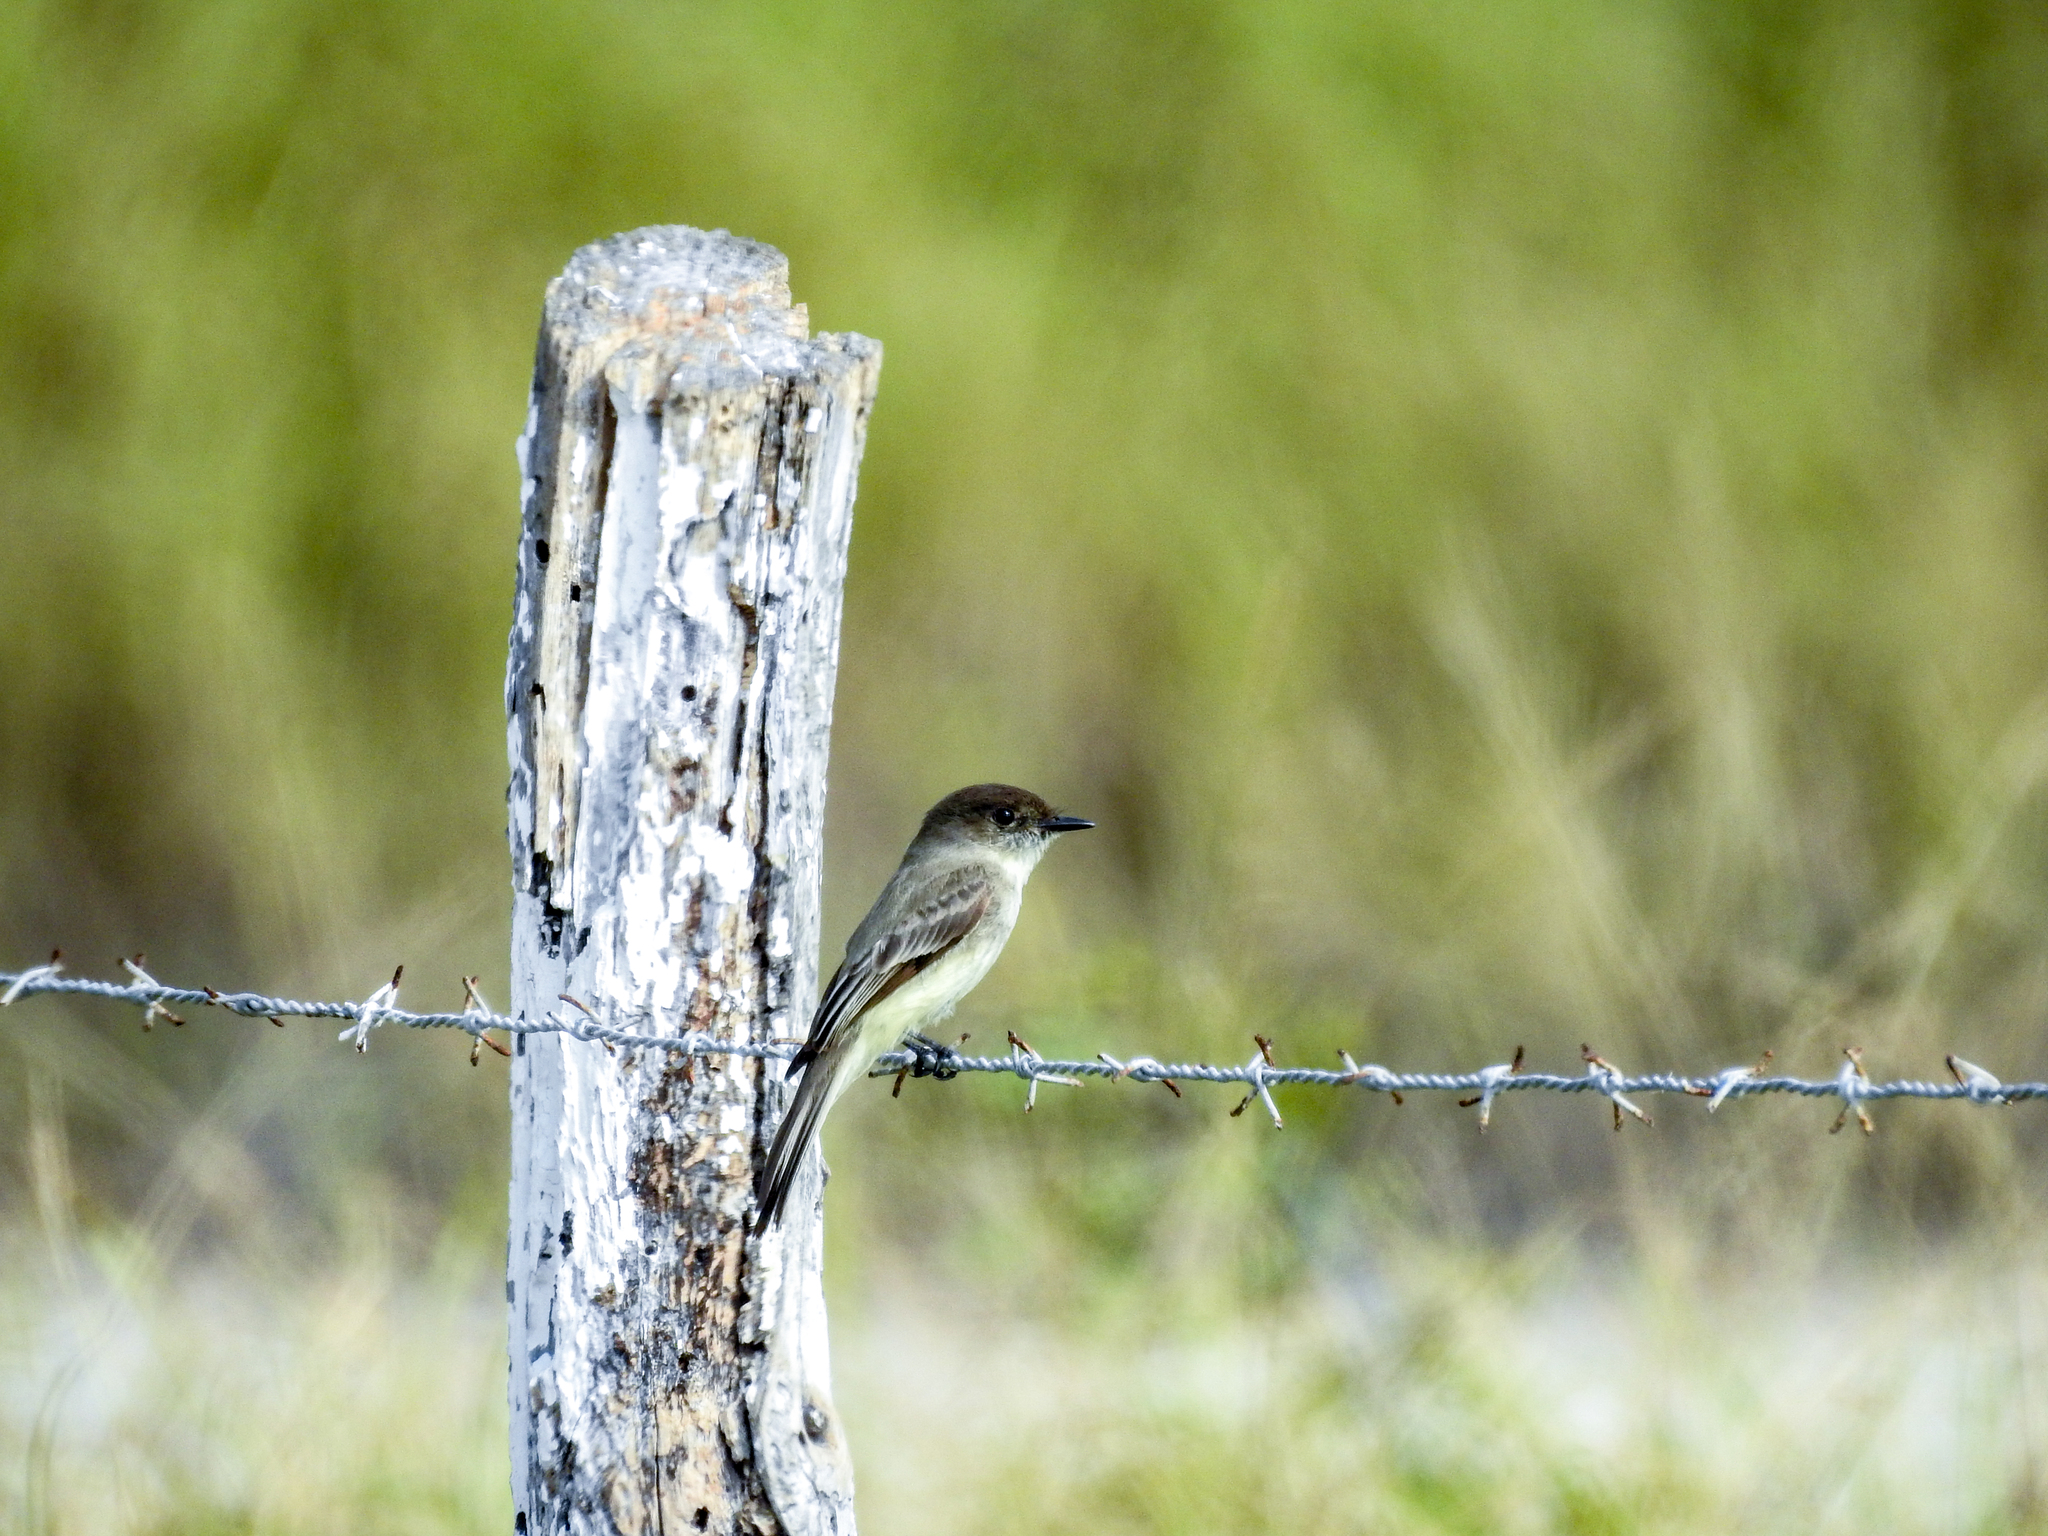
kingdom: Animalia
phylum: Chordata
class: Aves
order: Passeriformes
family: Tyrannidae
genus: Sayornis
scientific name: Sayornis phoebe
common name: Eastern phoebe
